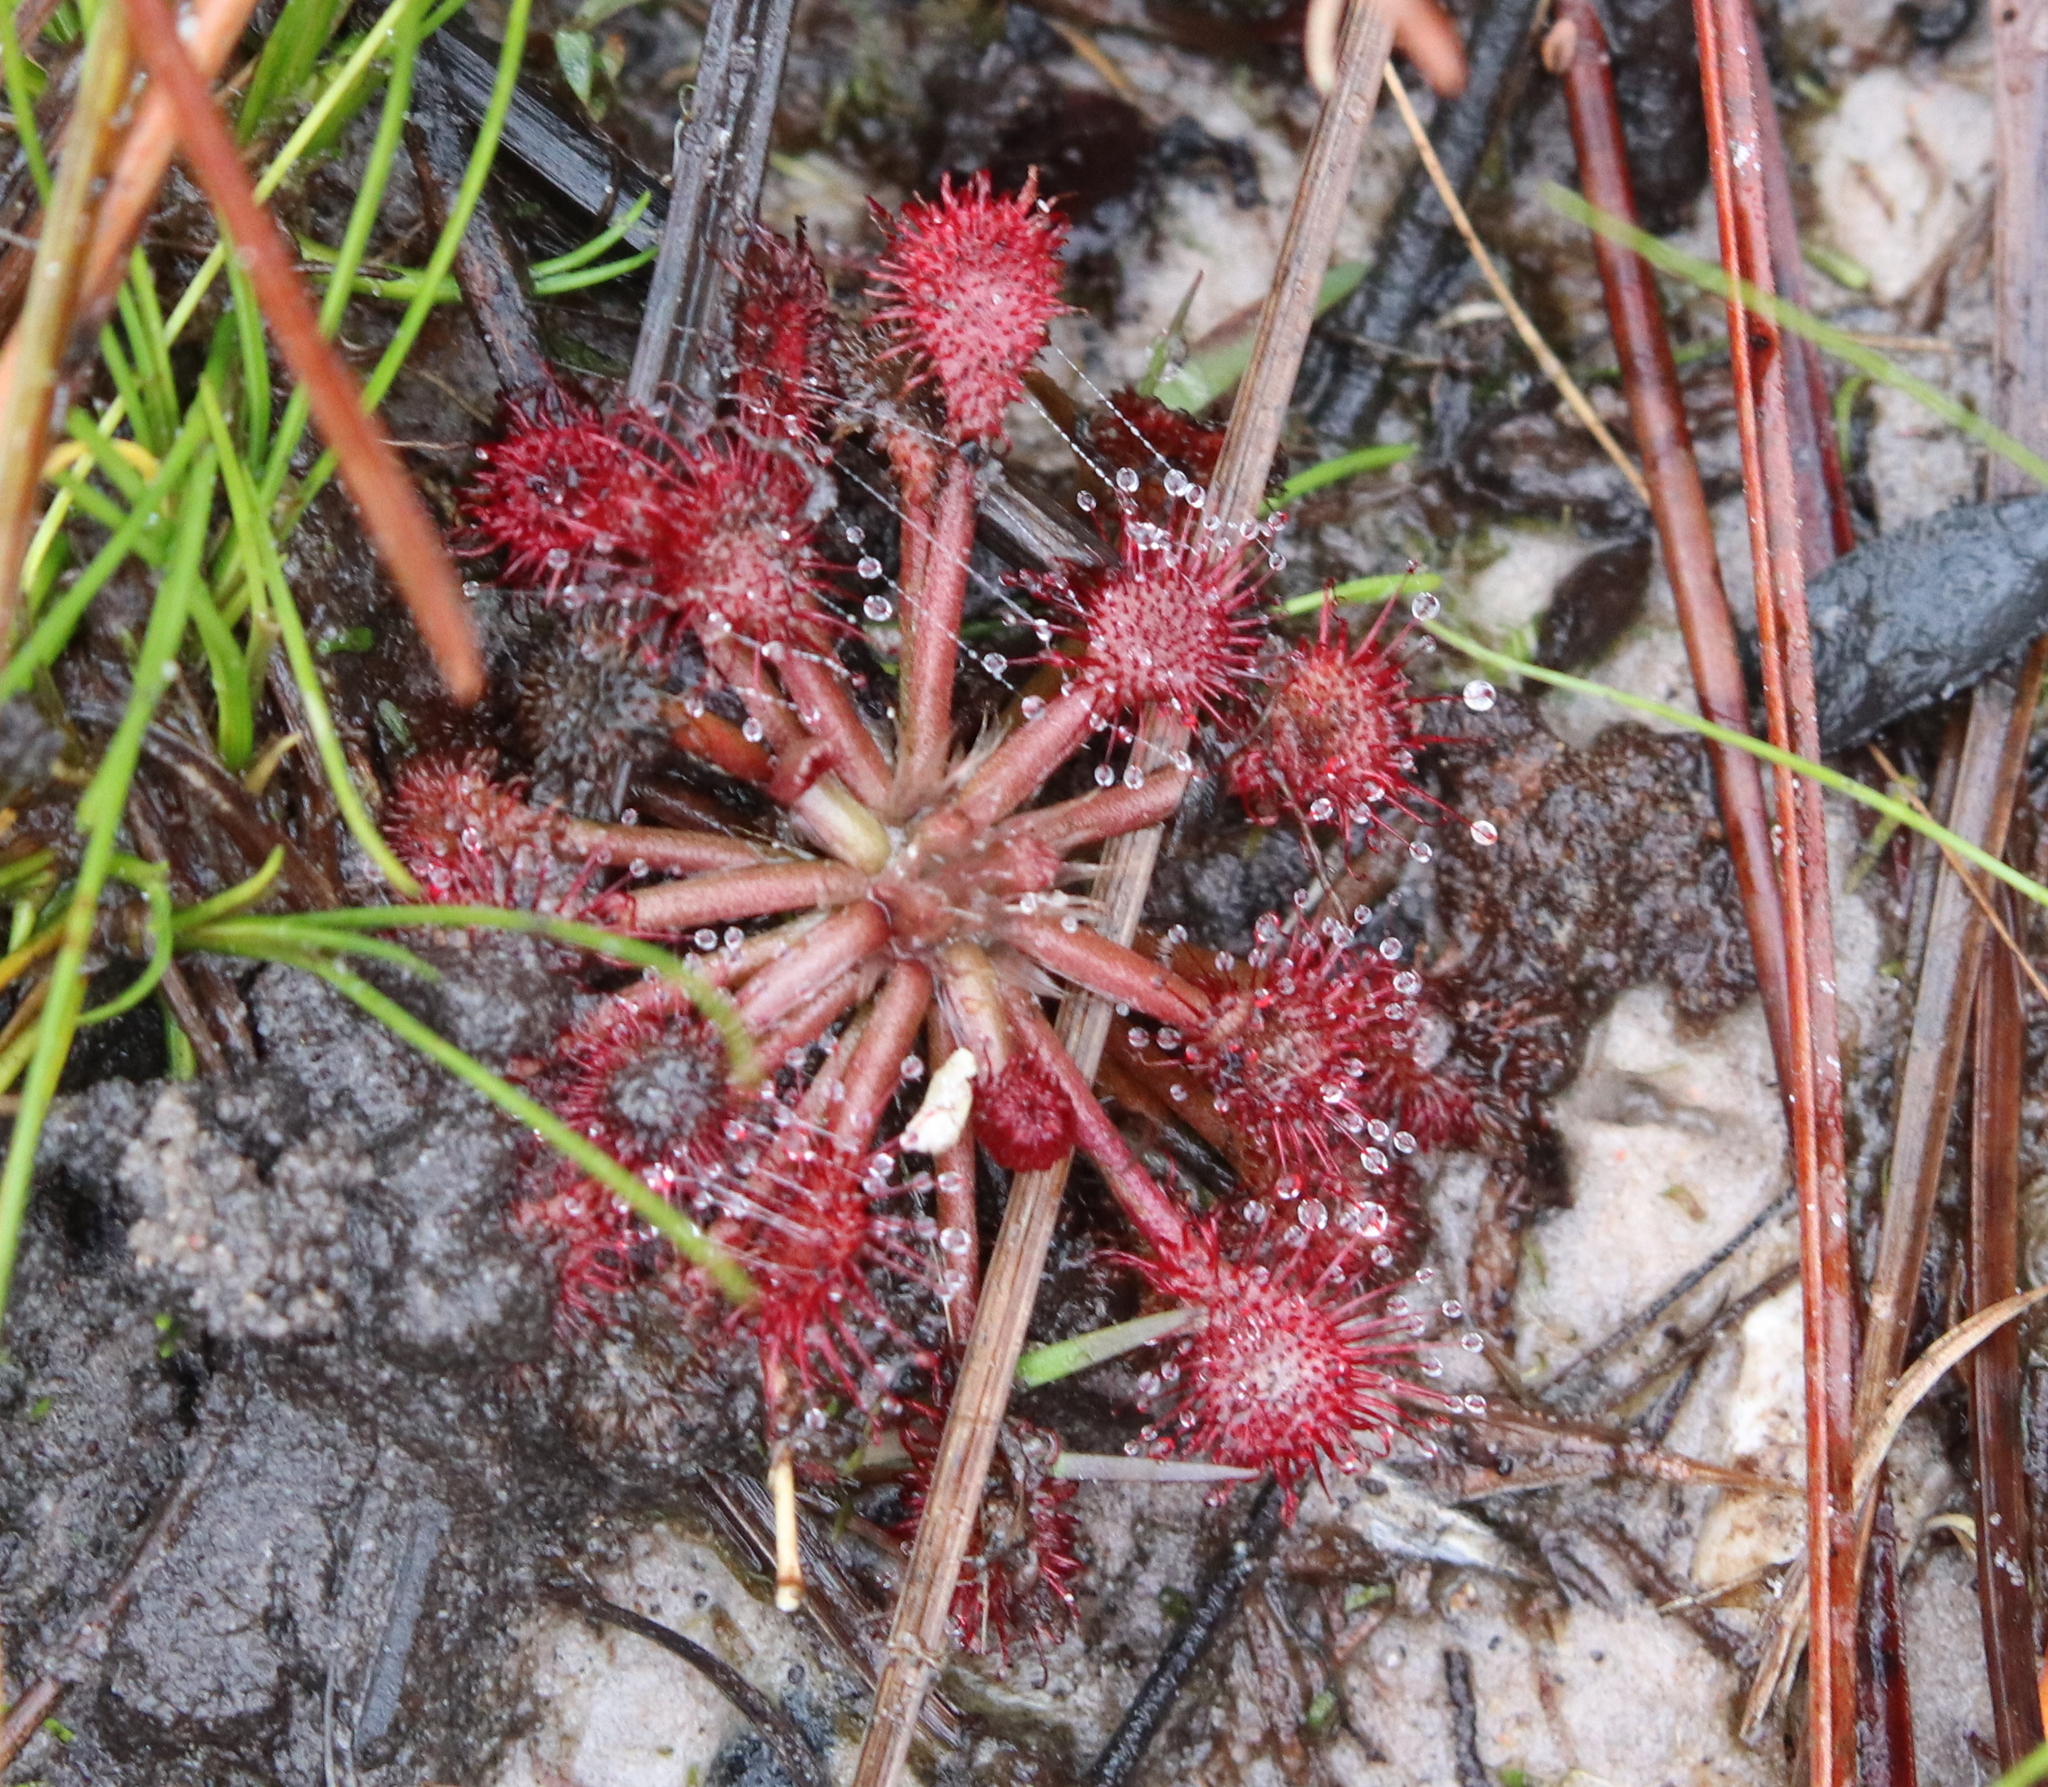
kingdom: Plantae
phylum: Tracheophyta
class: Magnoliopsida
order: Caryophyllales
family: Droseraceae
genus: Drosera
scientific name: Drosera capillaris
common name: Pink sundew
